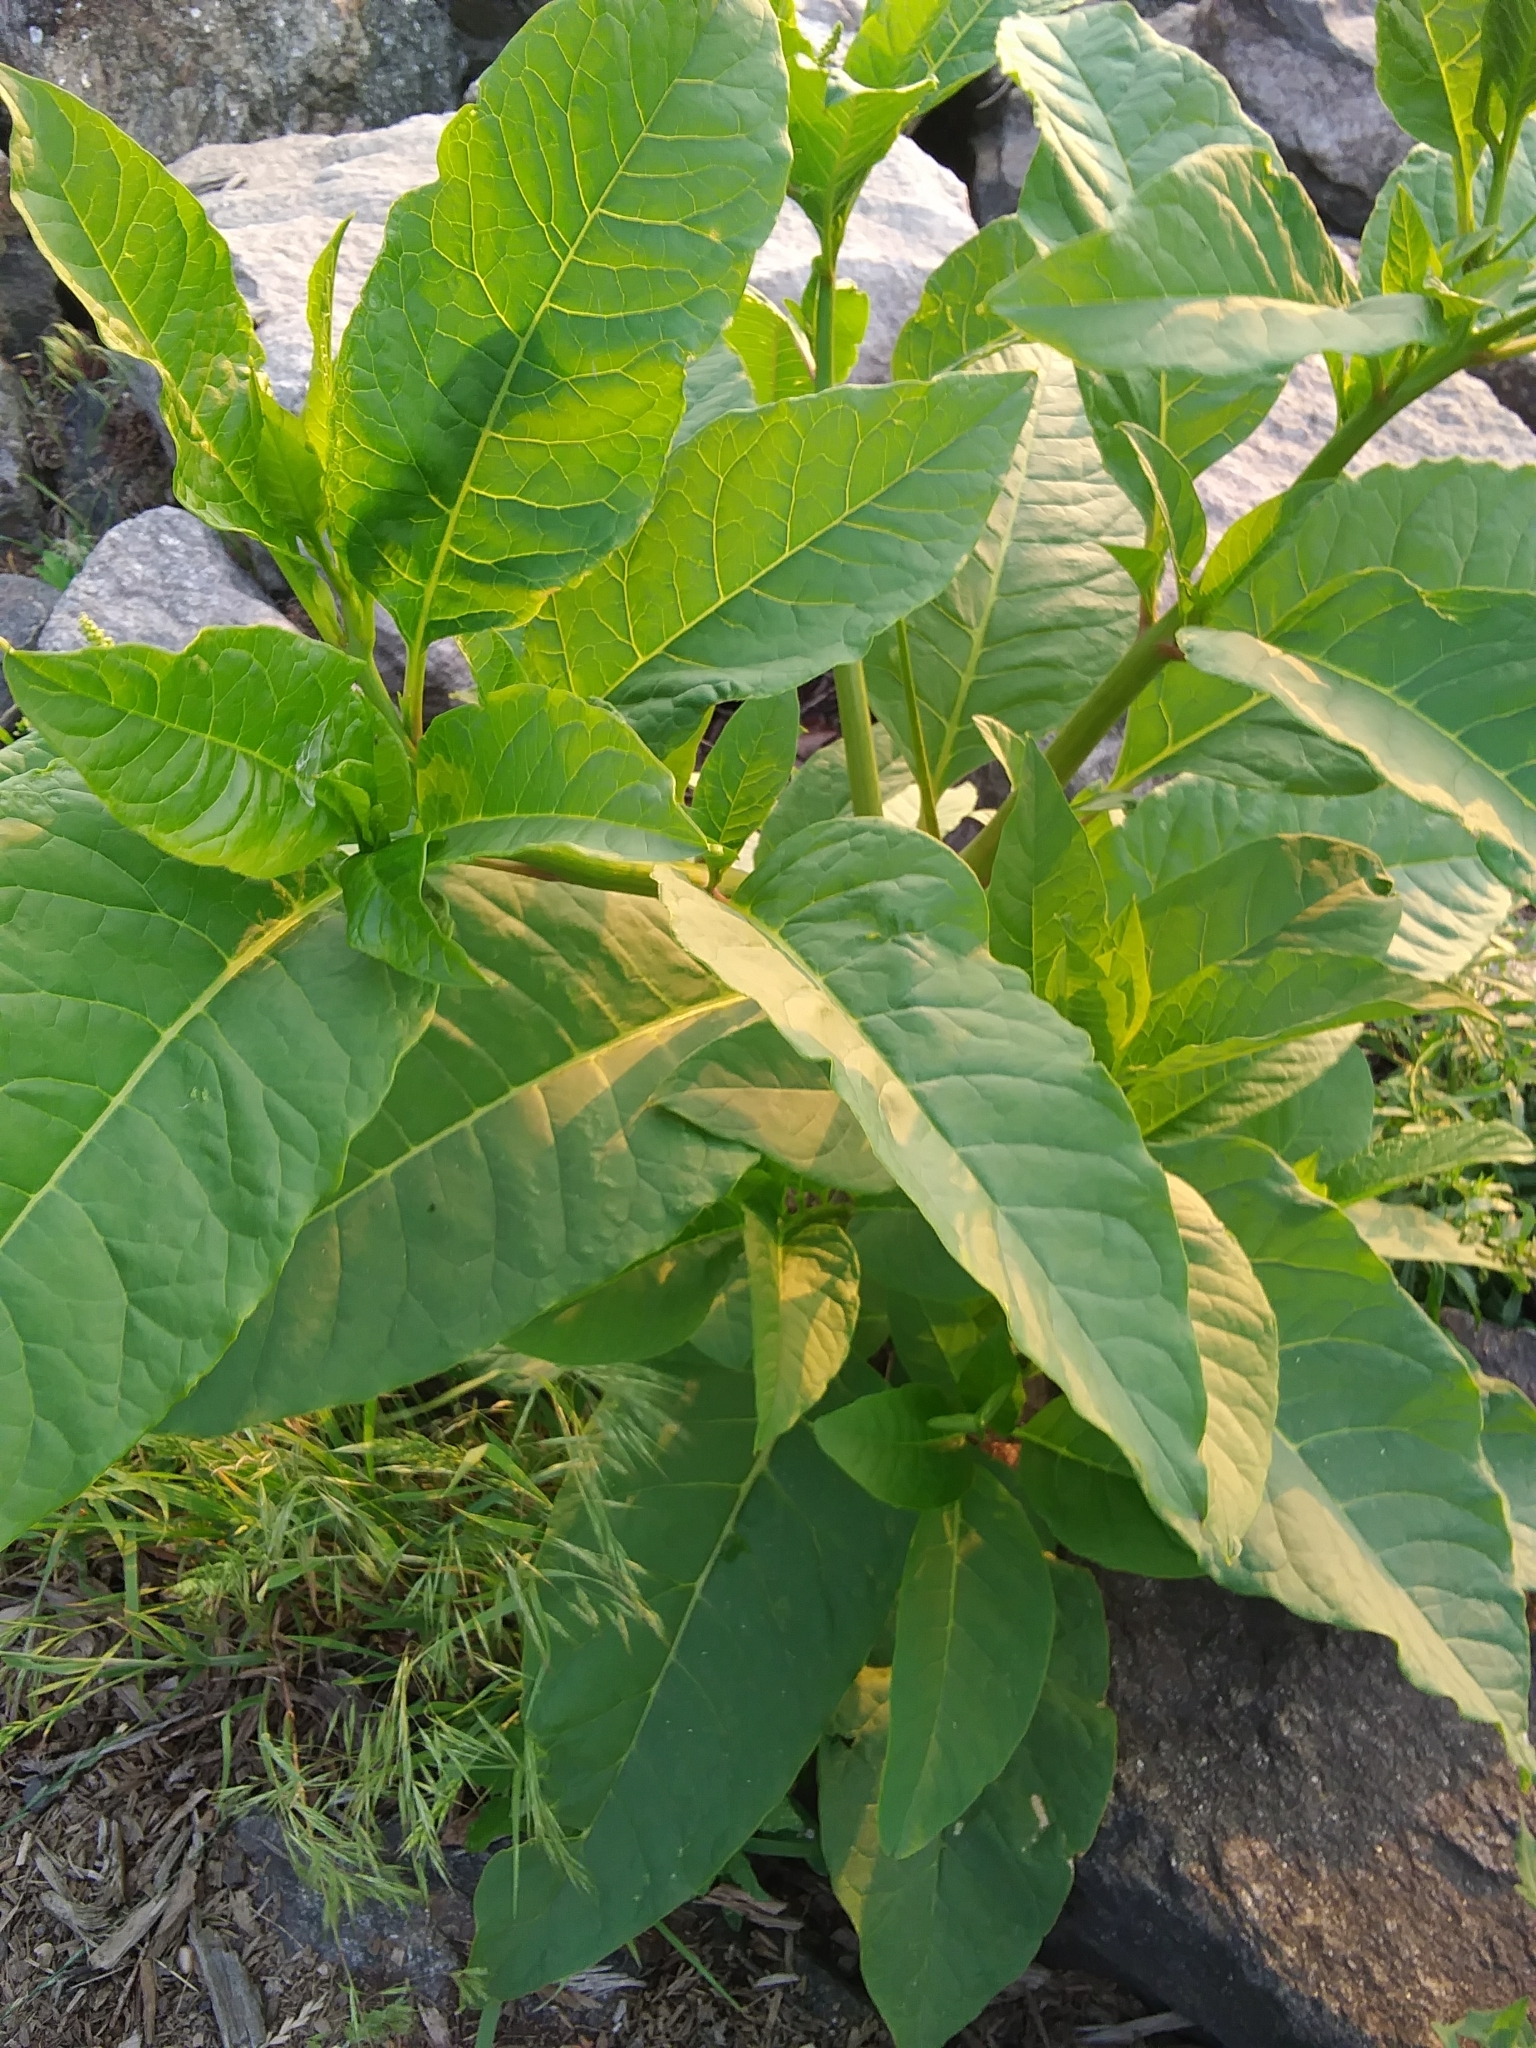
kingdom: Plantae
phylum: Tracheophyta
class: Magnoliopsida
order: Caryophyllales
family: Phytolaccaceae
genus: Phytolacca
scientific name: Phytolacca americana
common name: American pokeweed
